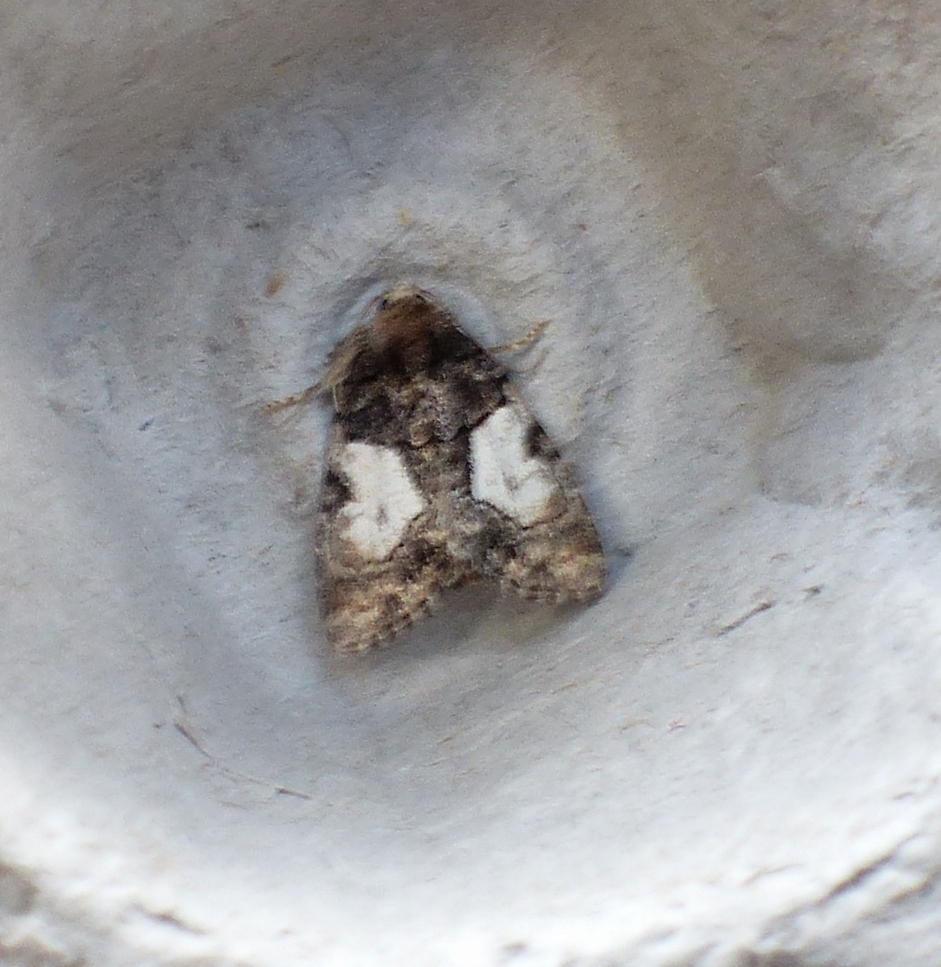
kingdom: Animalia
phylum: Arthropoda
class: Insecta
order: Lepidoptera
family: Noctuidae
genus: Chytonix
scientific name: Chytonix palliatricula
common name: Cloaked marvel
